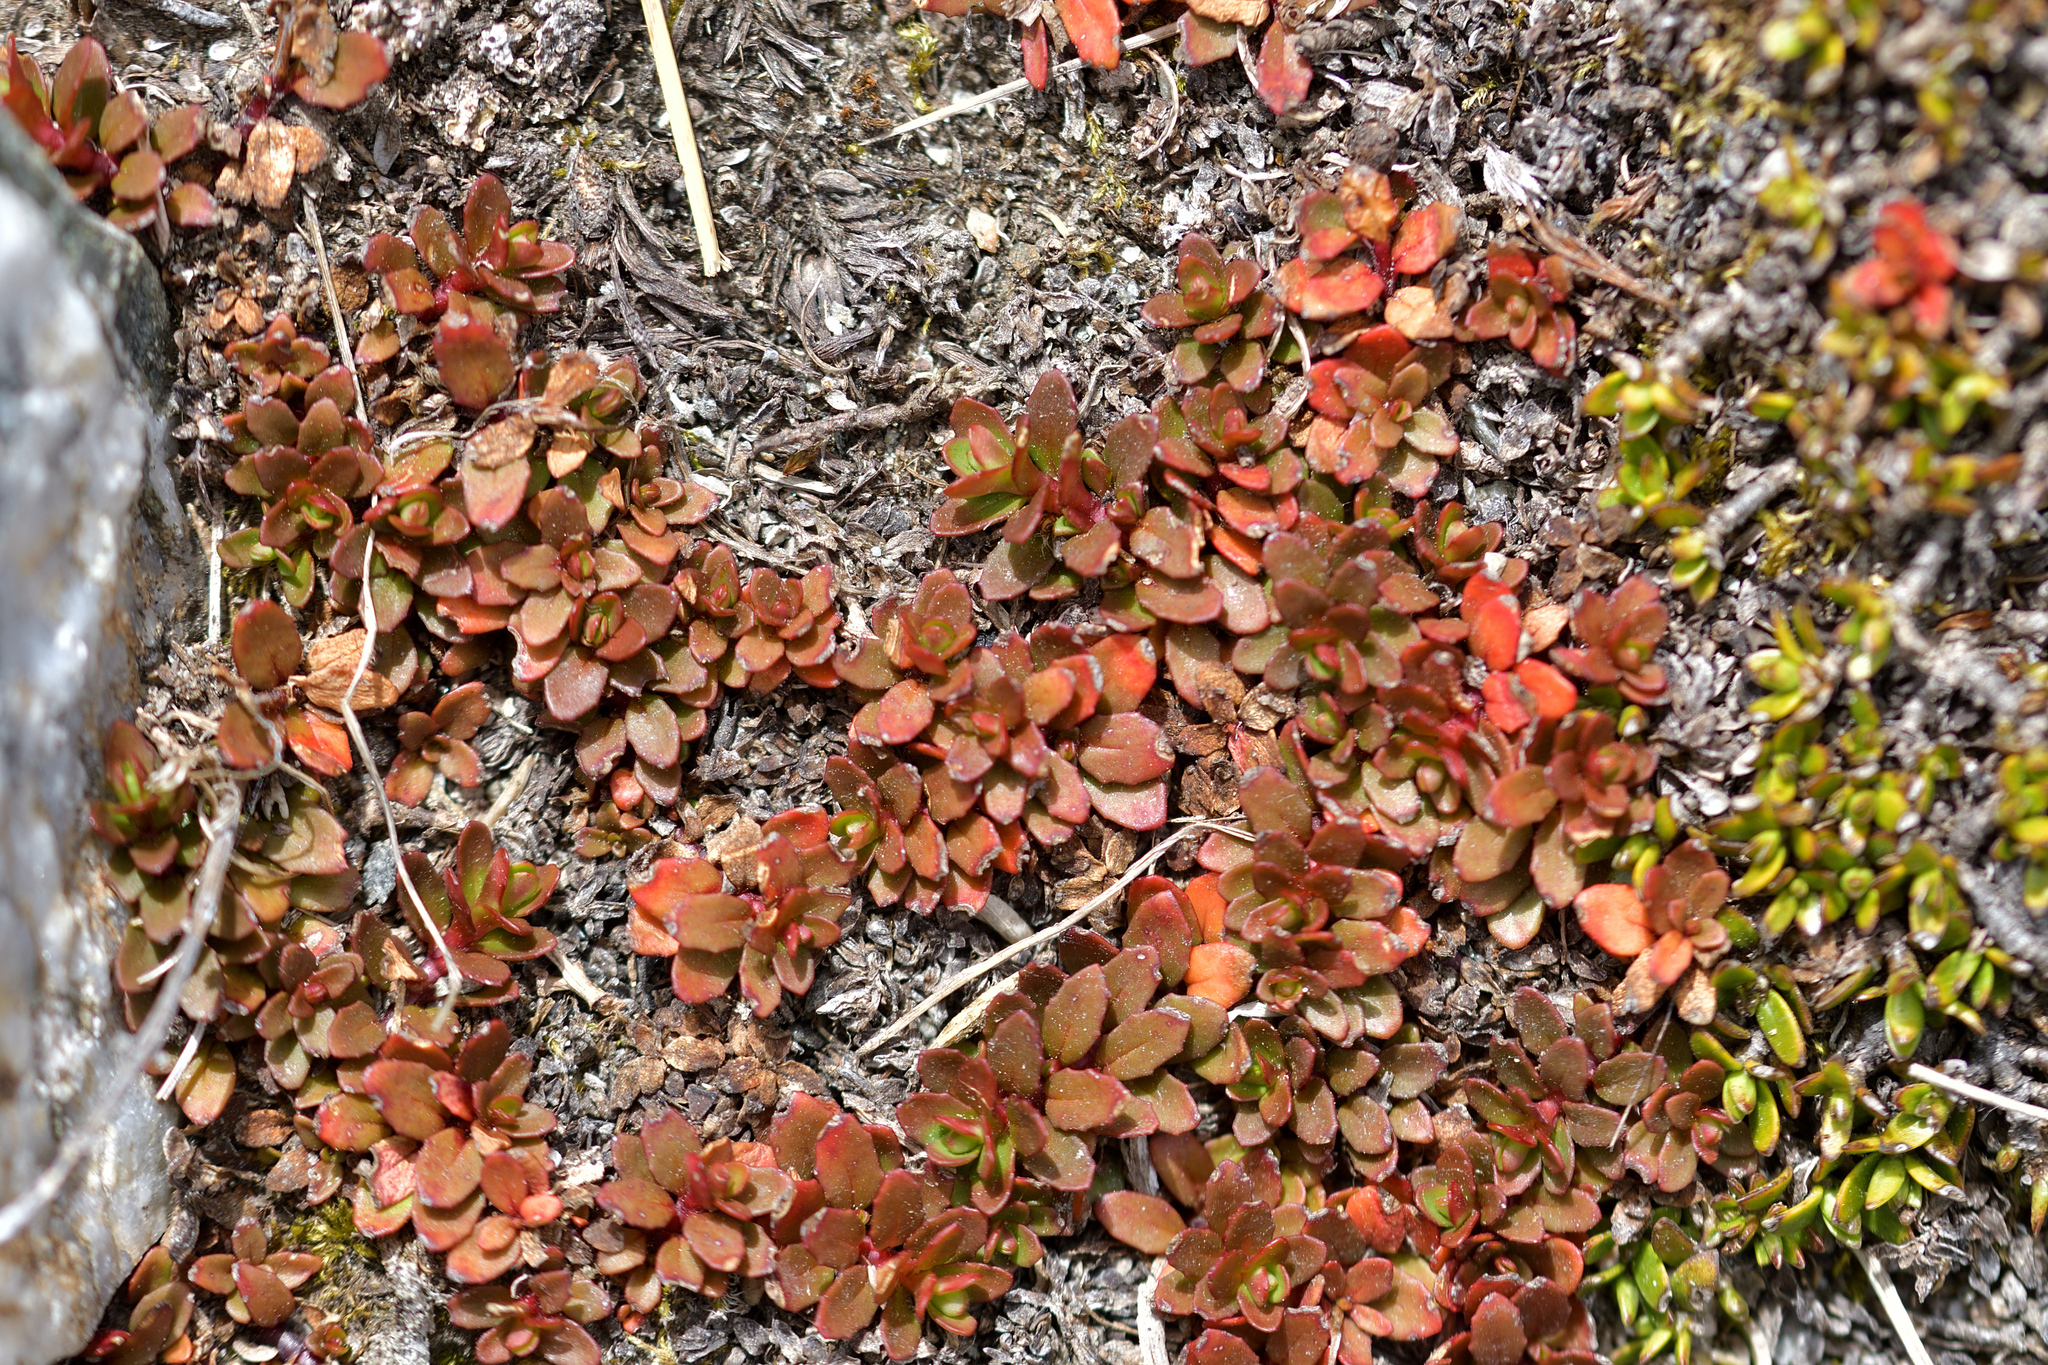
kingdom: Plantae
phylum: Tracheophyta
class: Magnoliopsida
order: Myrtales
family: Onagraceae
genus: Epilobium
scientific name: Epilobium tasmanicum
